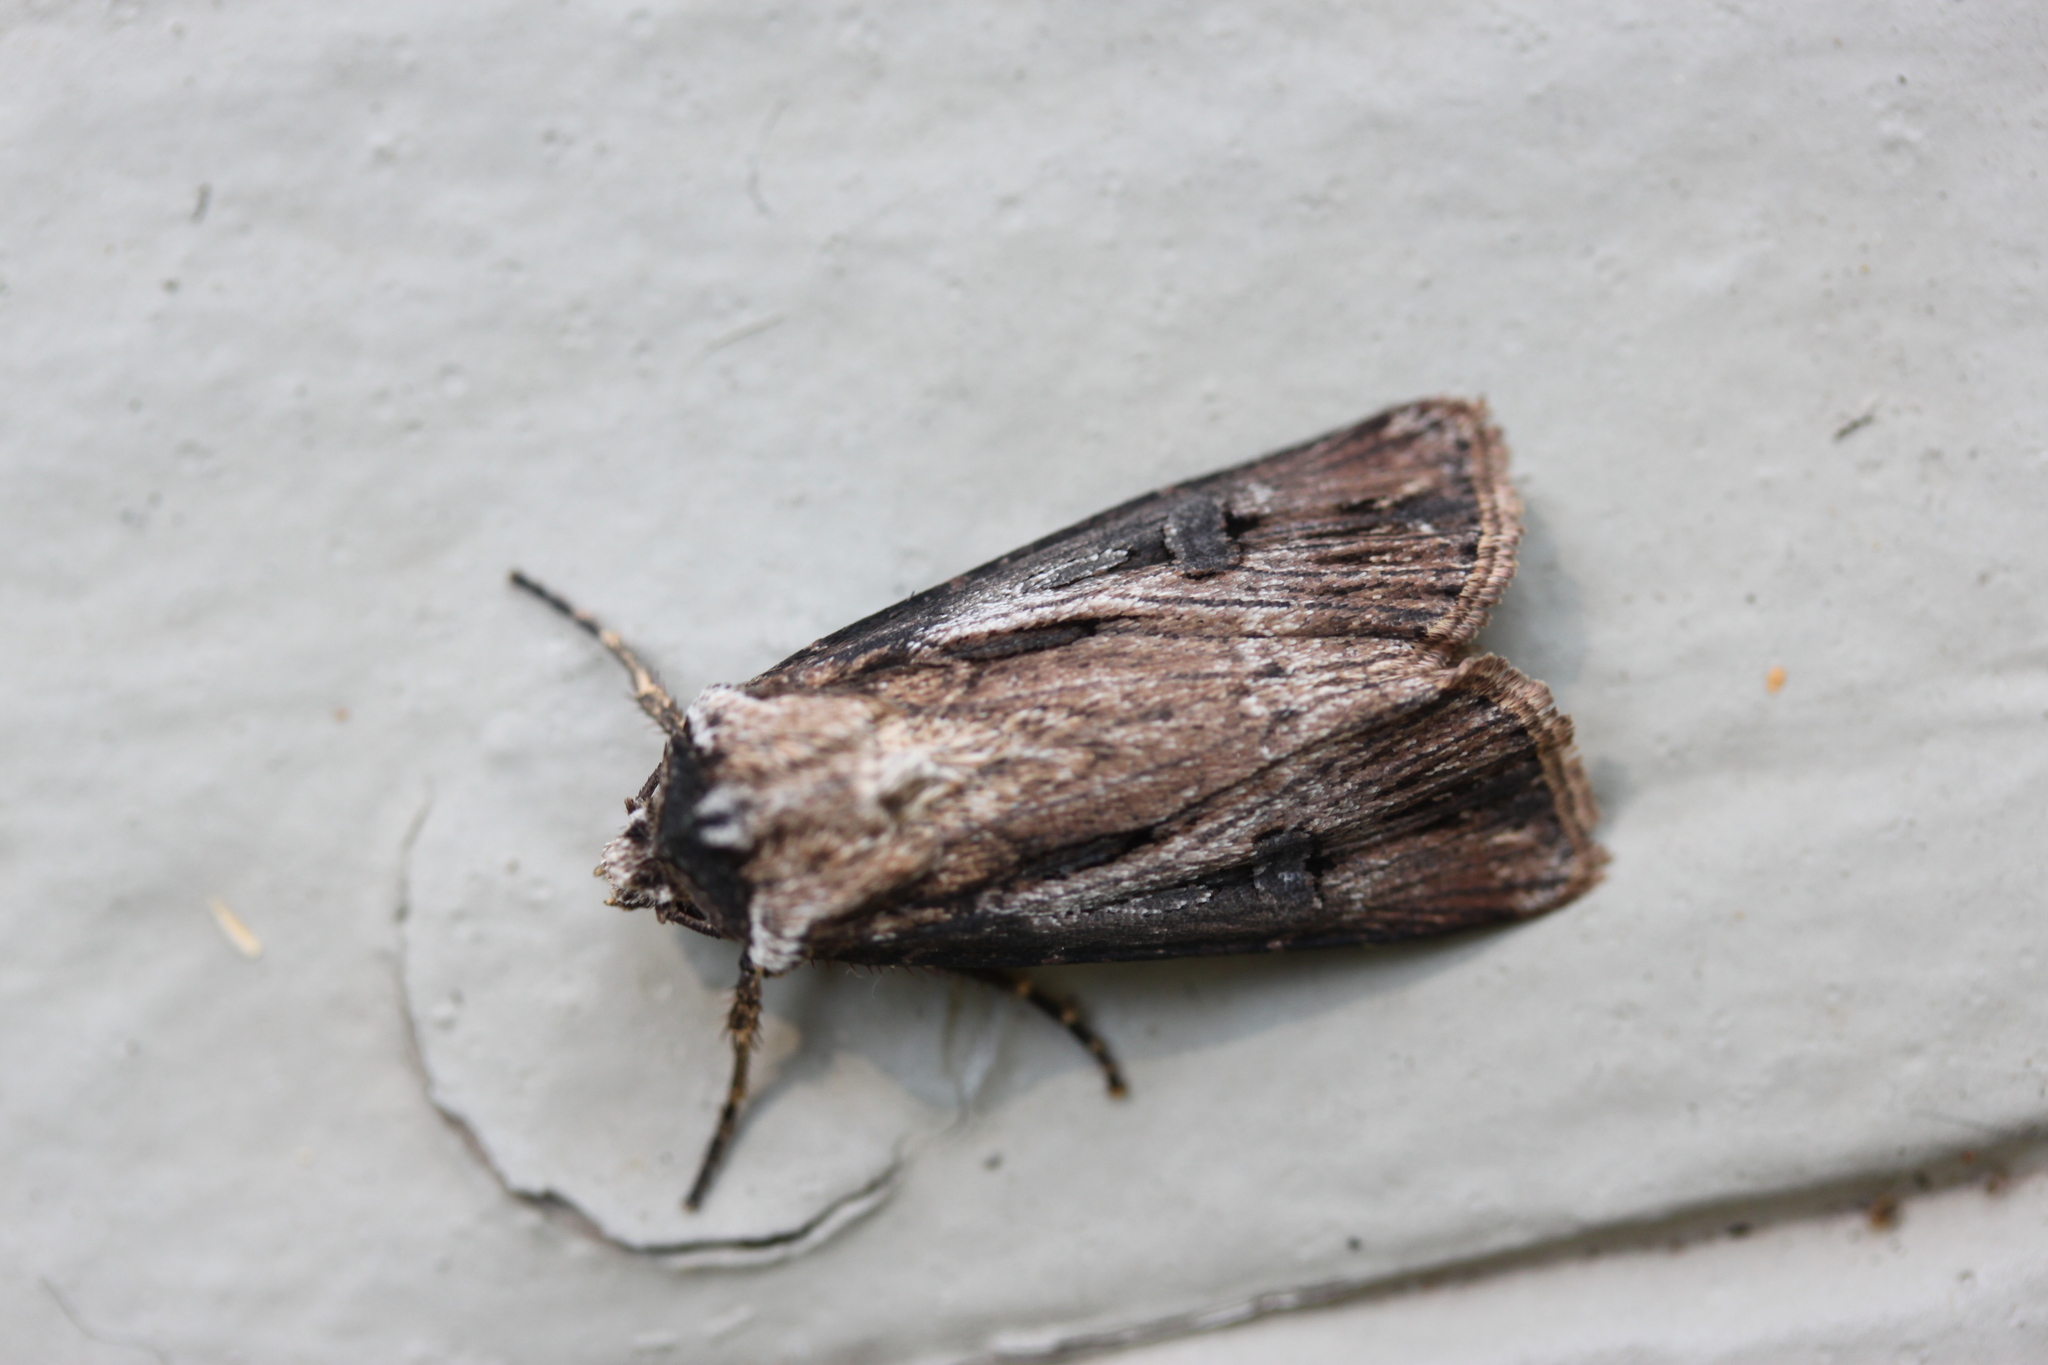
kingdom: Animalia
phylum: Arthropoda
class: Insecta
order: Lepidoptera
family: Noctuidae
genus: Agrotis
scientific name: Agrotis venerabilis
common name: Venerable dart
